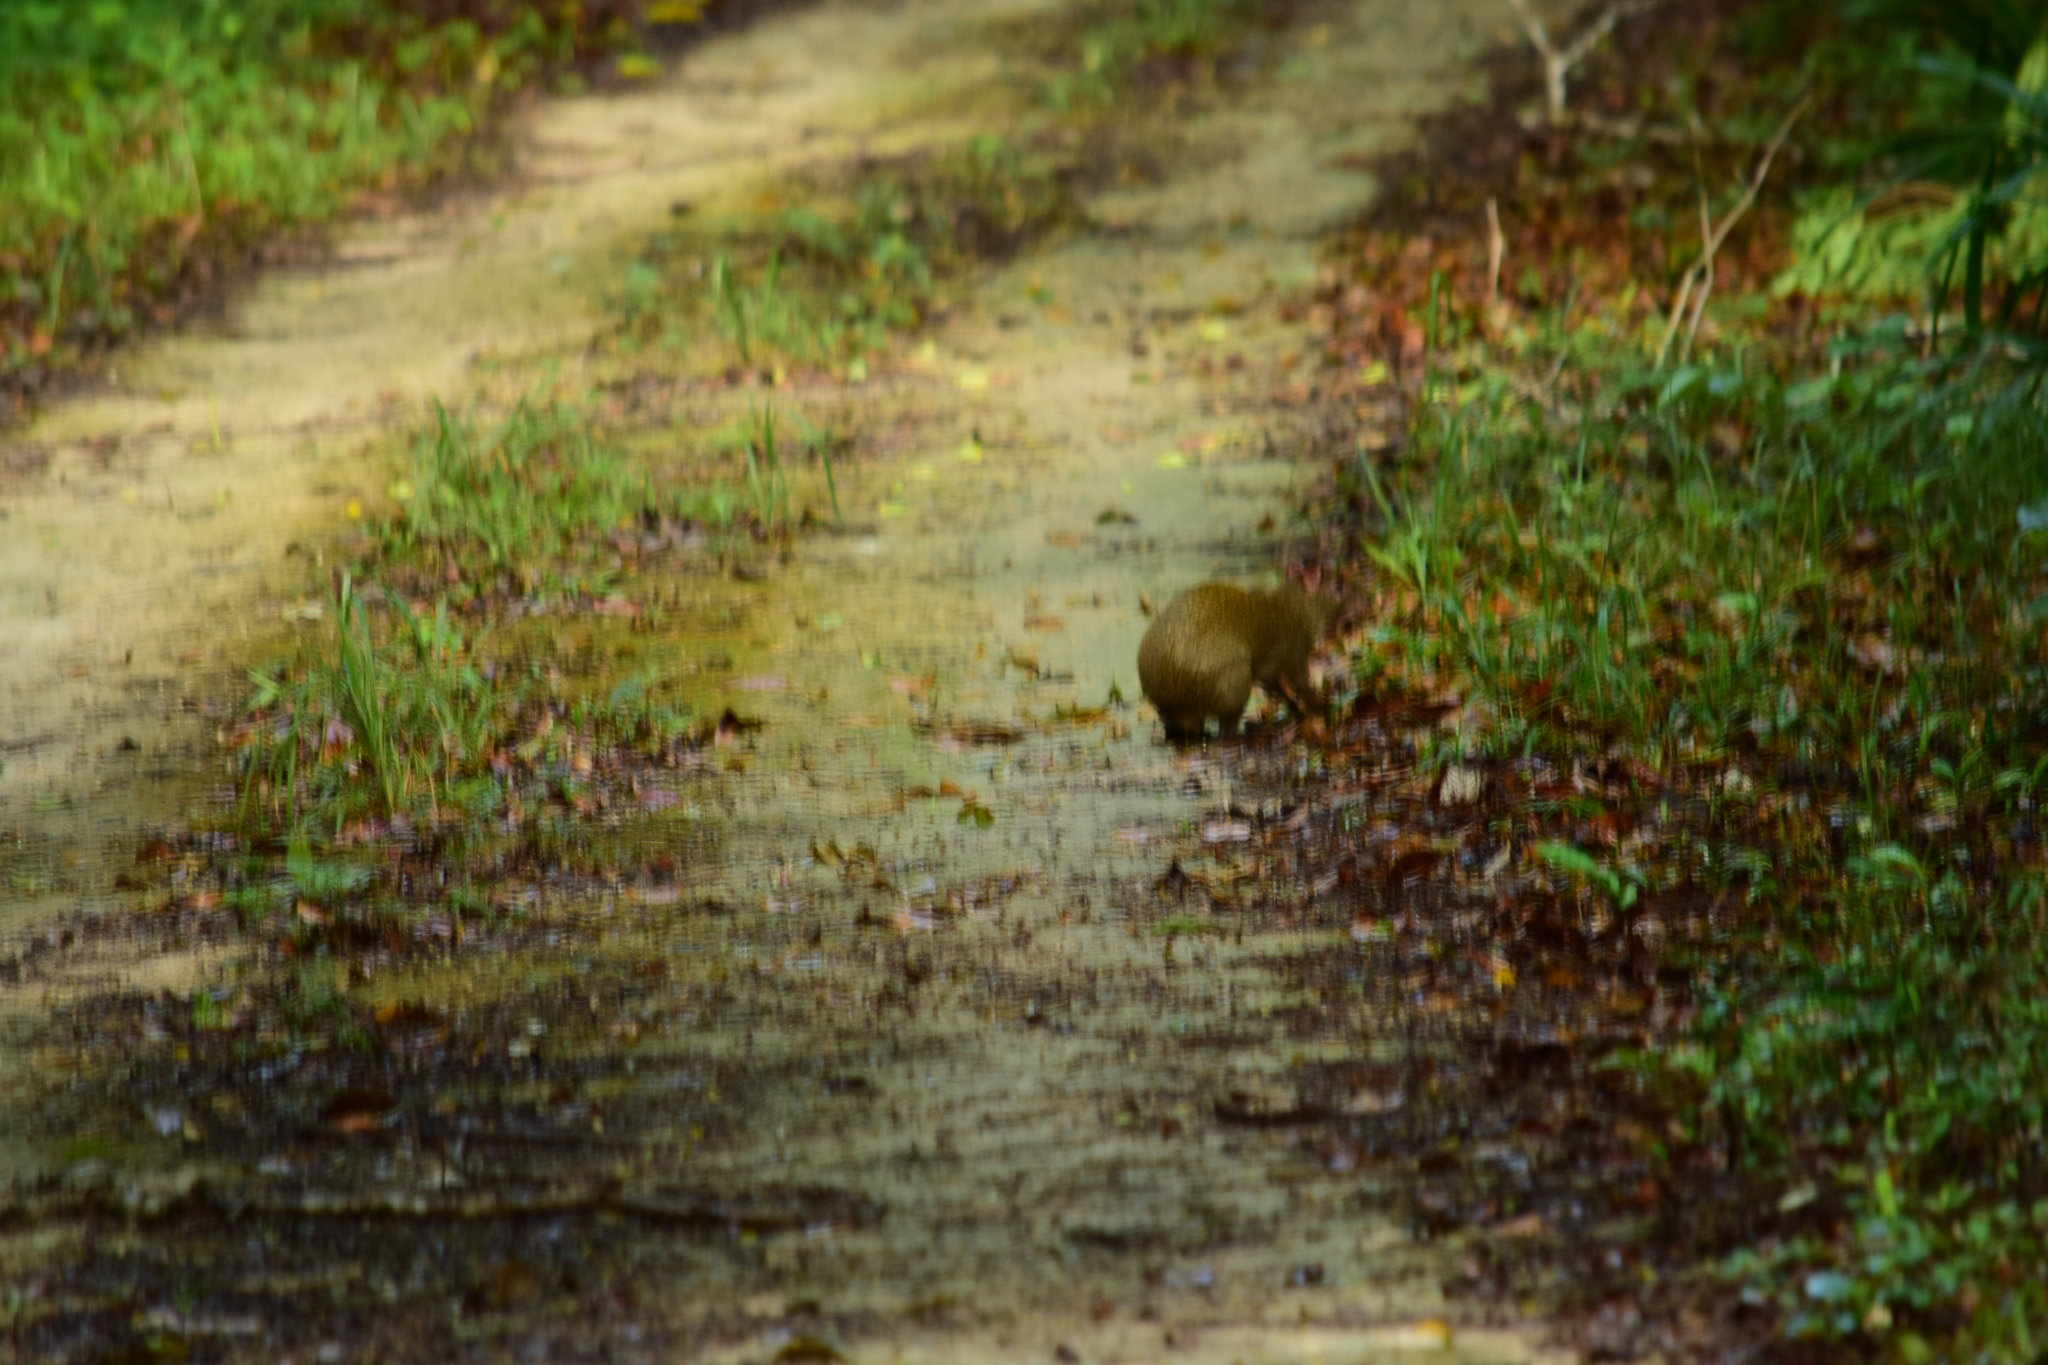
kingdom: Animalia
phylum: Chordata
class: Mammalia
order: Rodentia
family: Dasyproctidae
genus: Dasyprocta
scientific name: Dasyprocta punctata
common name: Central american agouti
